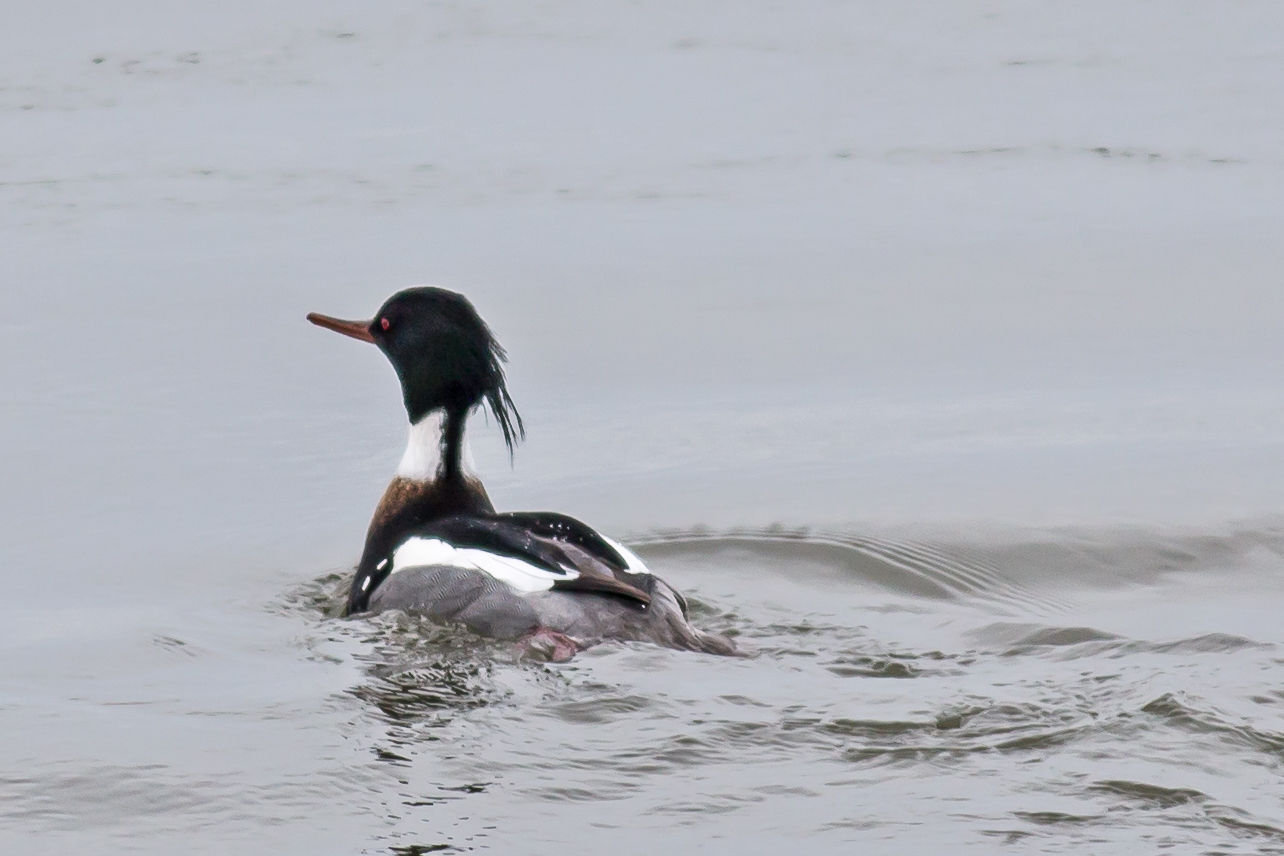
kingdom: Animalia
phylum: Chordata
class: Aves
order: Anseriformes
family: Anatidae
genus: Mergus
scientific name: Mergus serrator
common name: Red-breasted merganser
